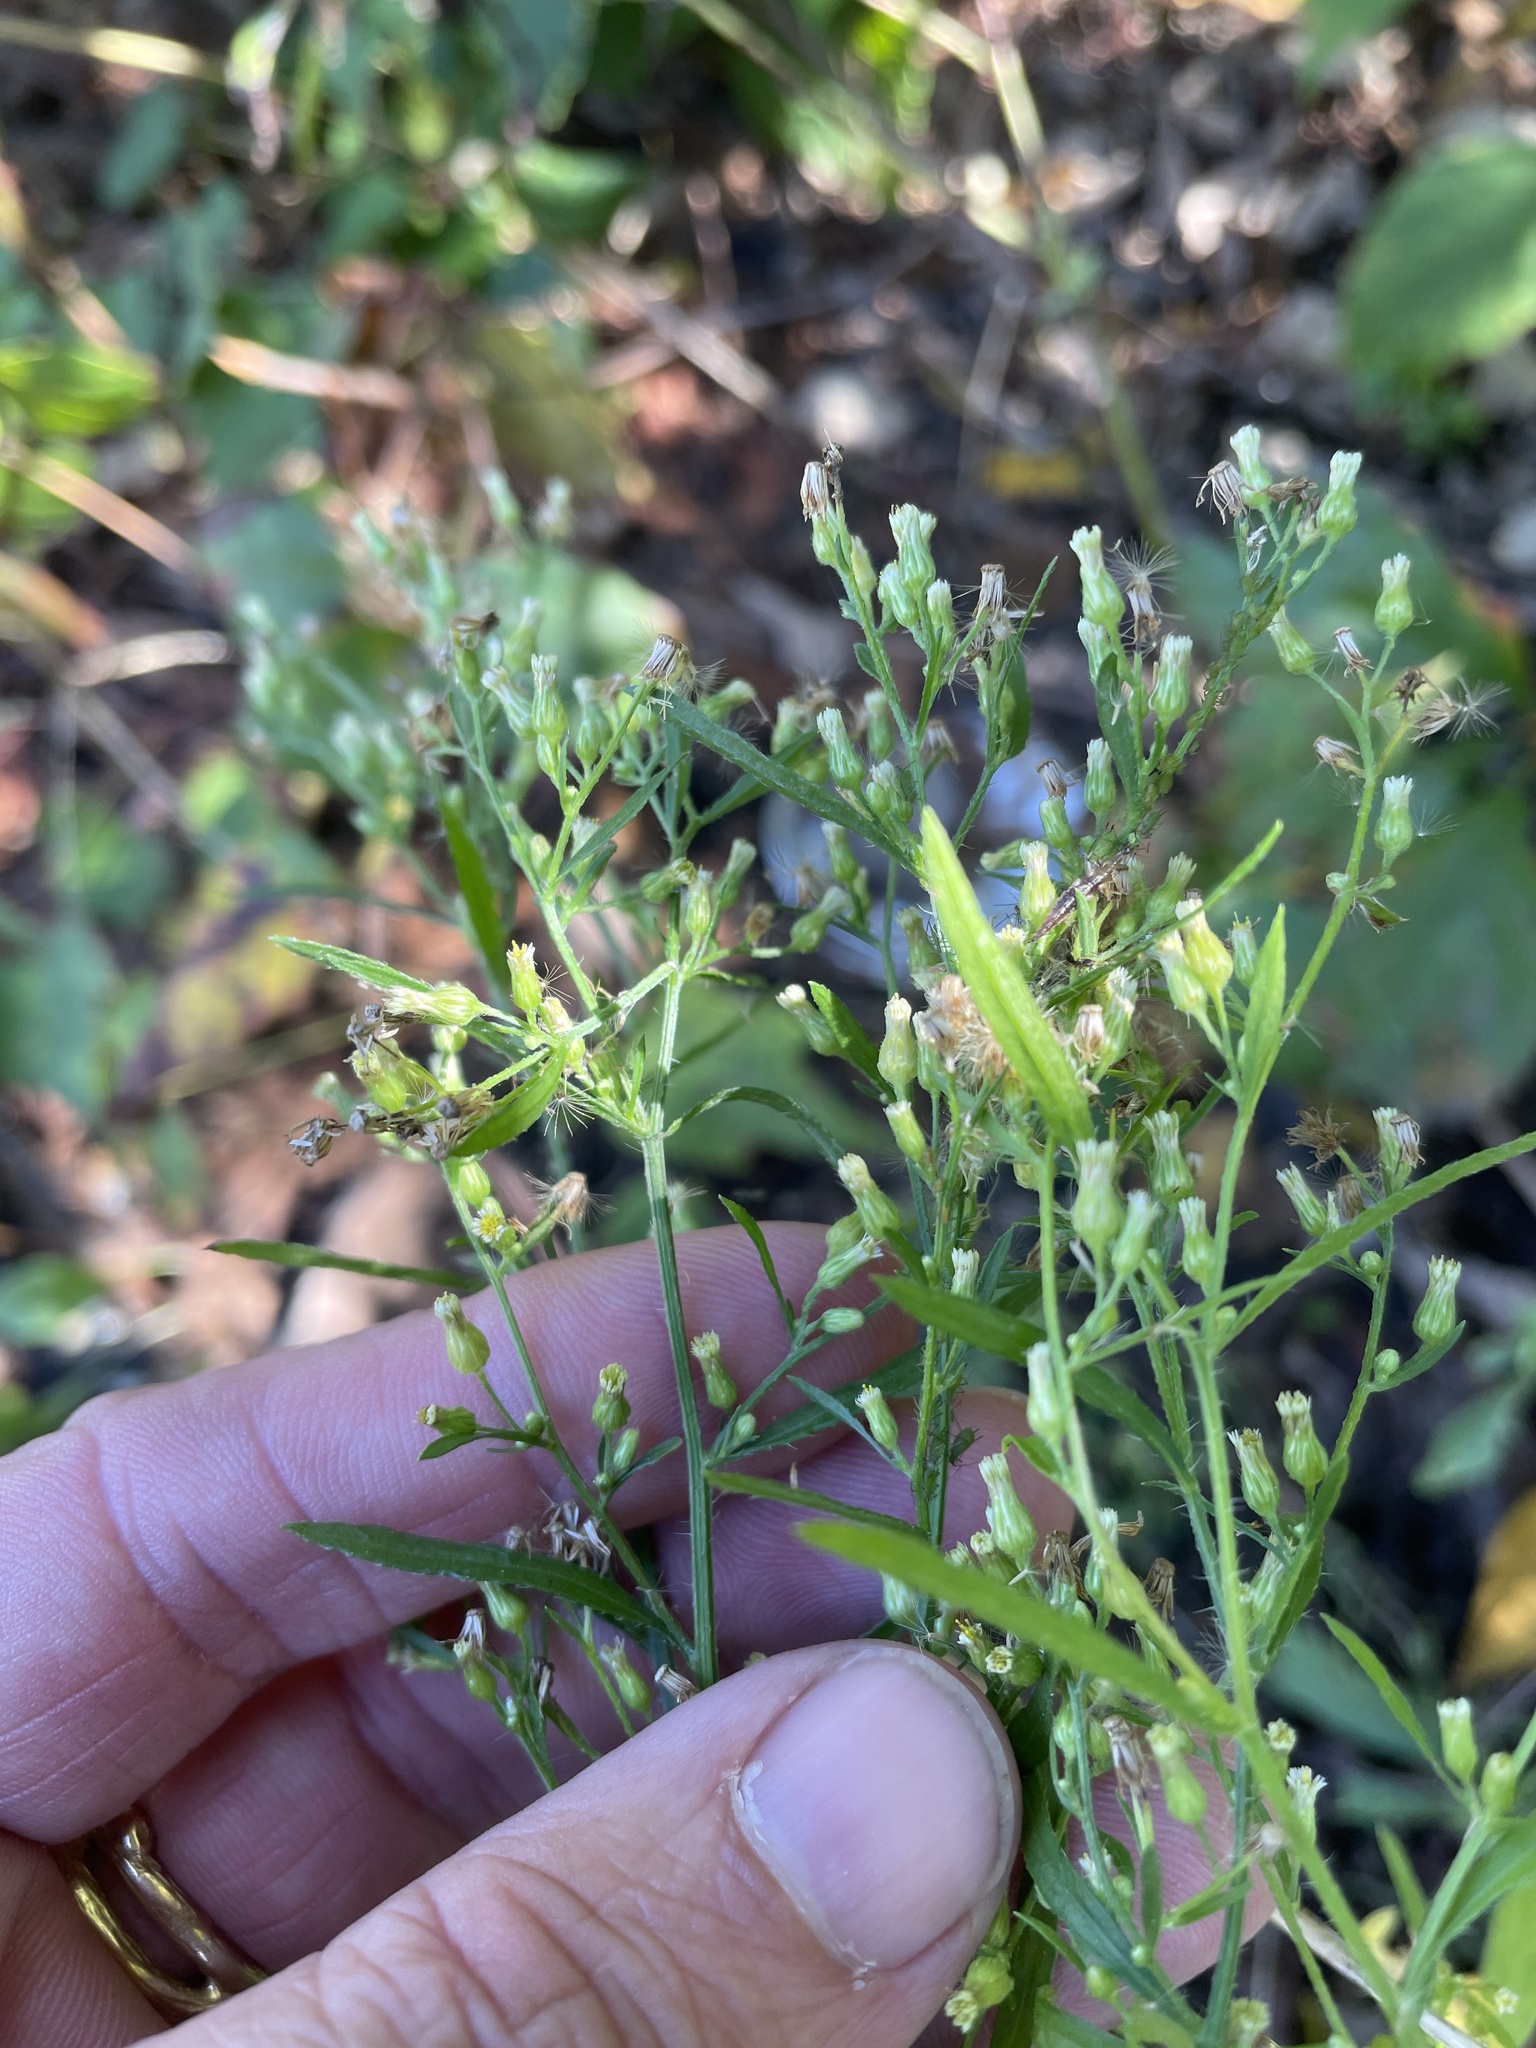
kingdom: Plantae
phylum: Tracheophyta
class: Magnoliopsida
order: Asterales
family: Asteraceae
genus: Erigeron
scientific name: Erigeron canadensis
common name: Canadian fleabane
